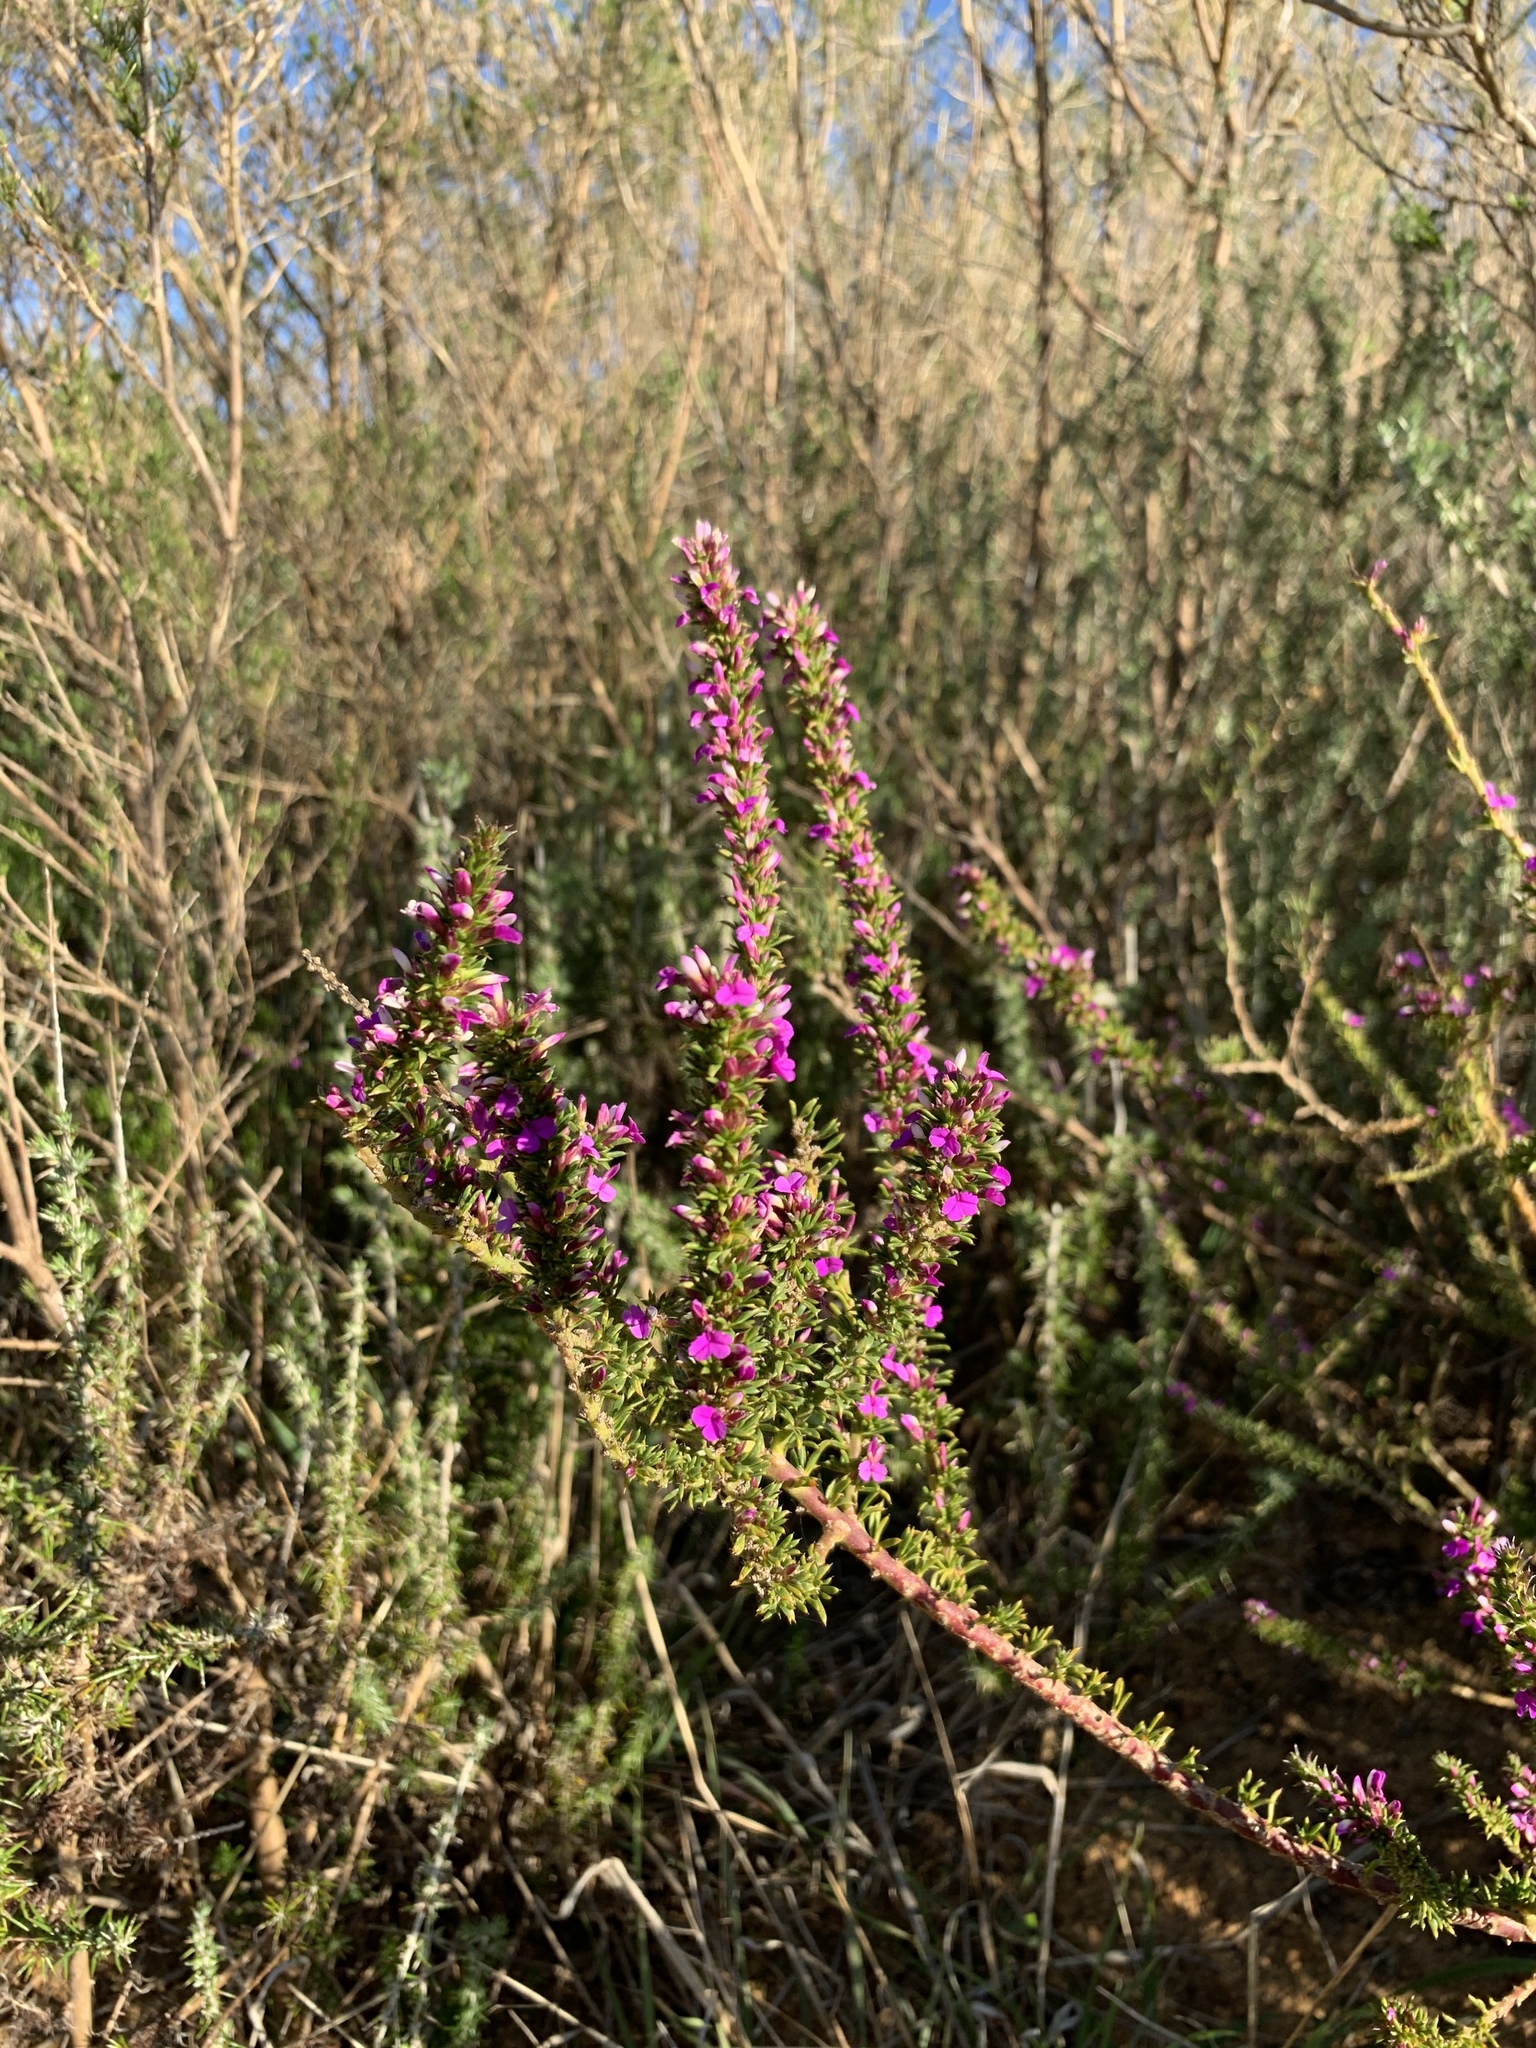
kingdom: Plantae
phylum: Tracheophyta
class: Magnoliopsida
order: Fabales
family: Polygalaceae
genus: Muraltia
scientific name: Muraltia heisteria
